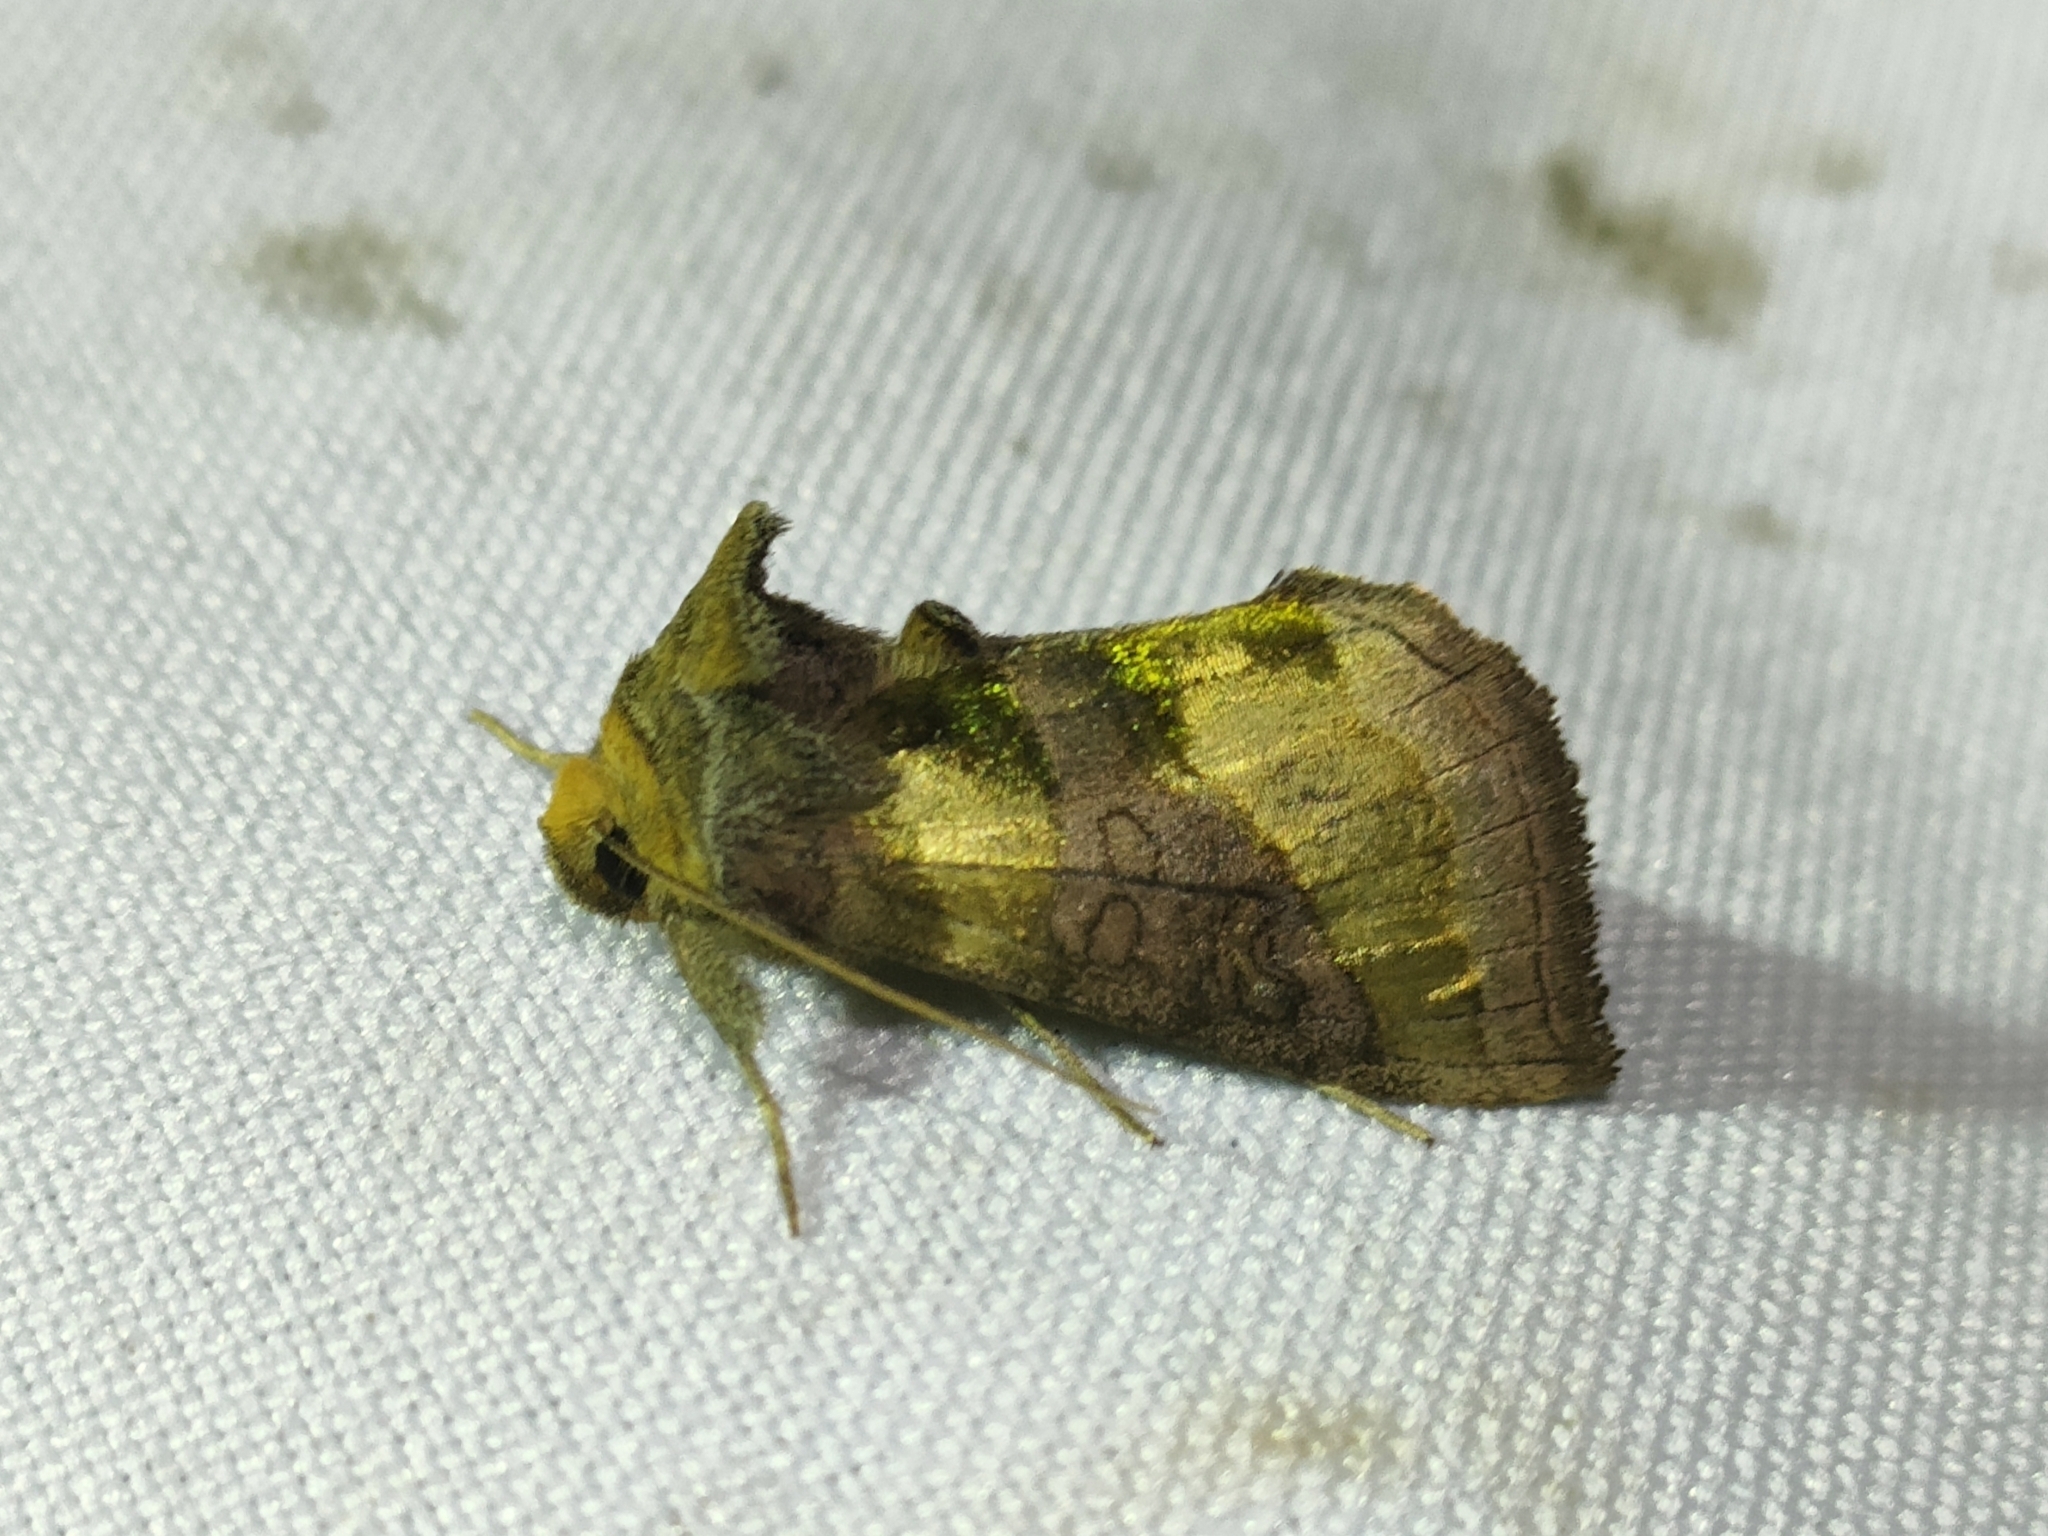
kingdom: Animalia
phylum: Arthropoda
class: Insecta
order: Lepidoptera
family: Noctuidae
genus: Diachrysia
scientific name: Diachrysia chrysitis
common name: Burnished brass
